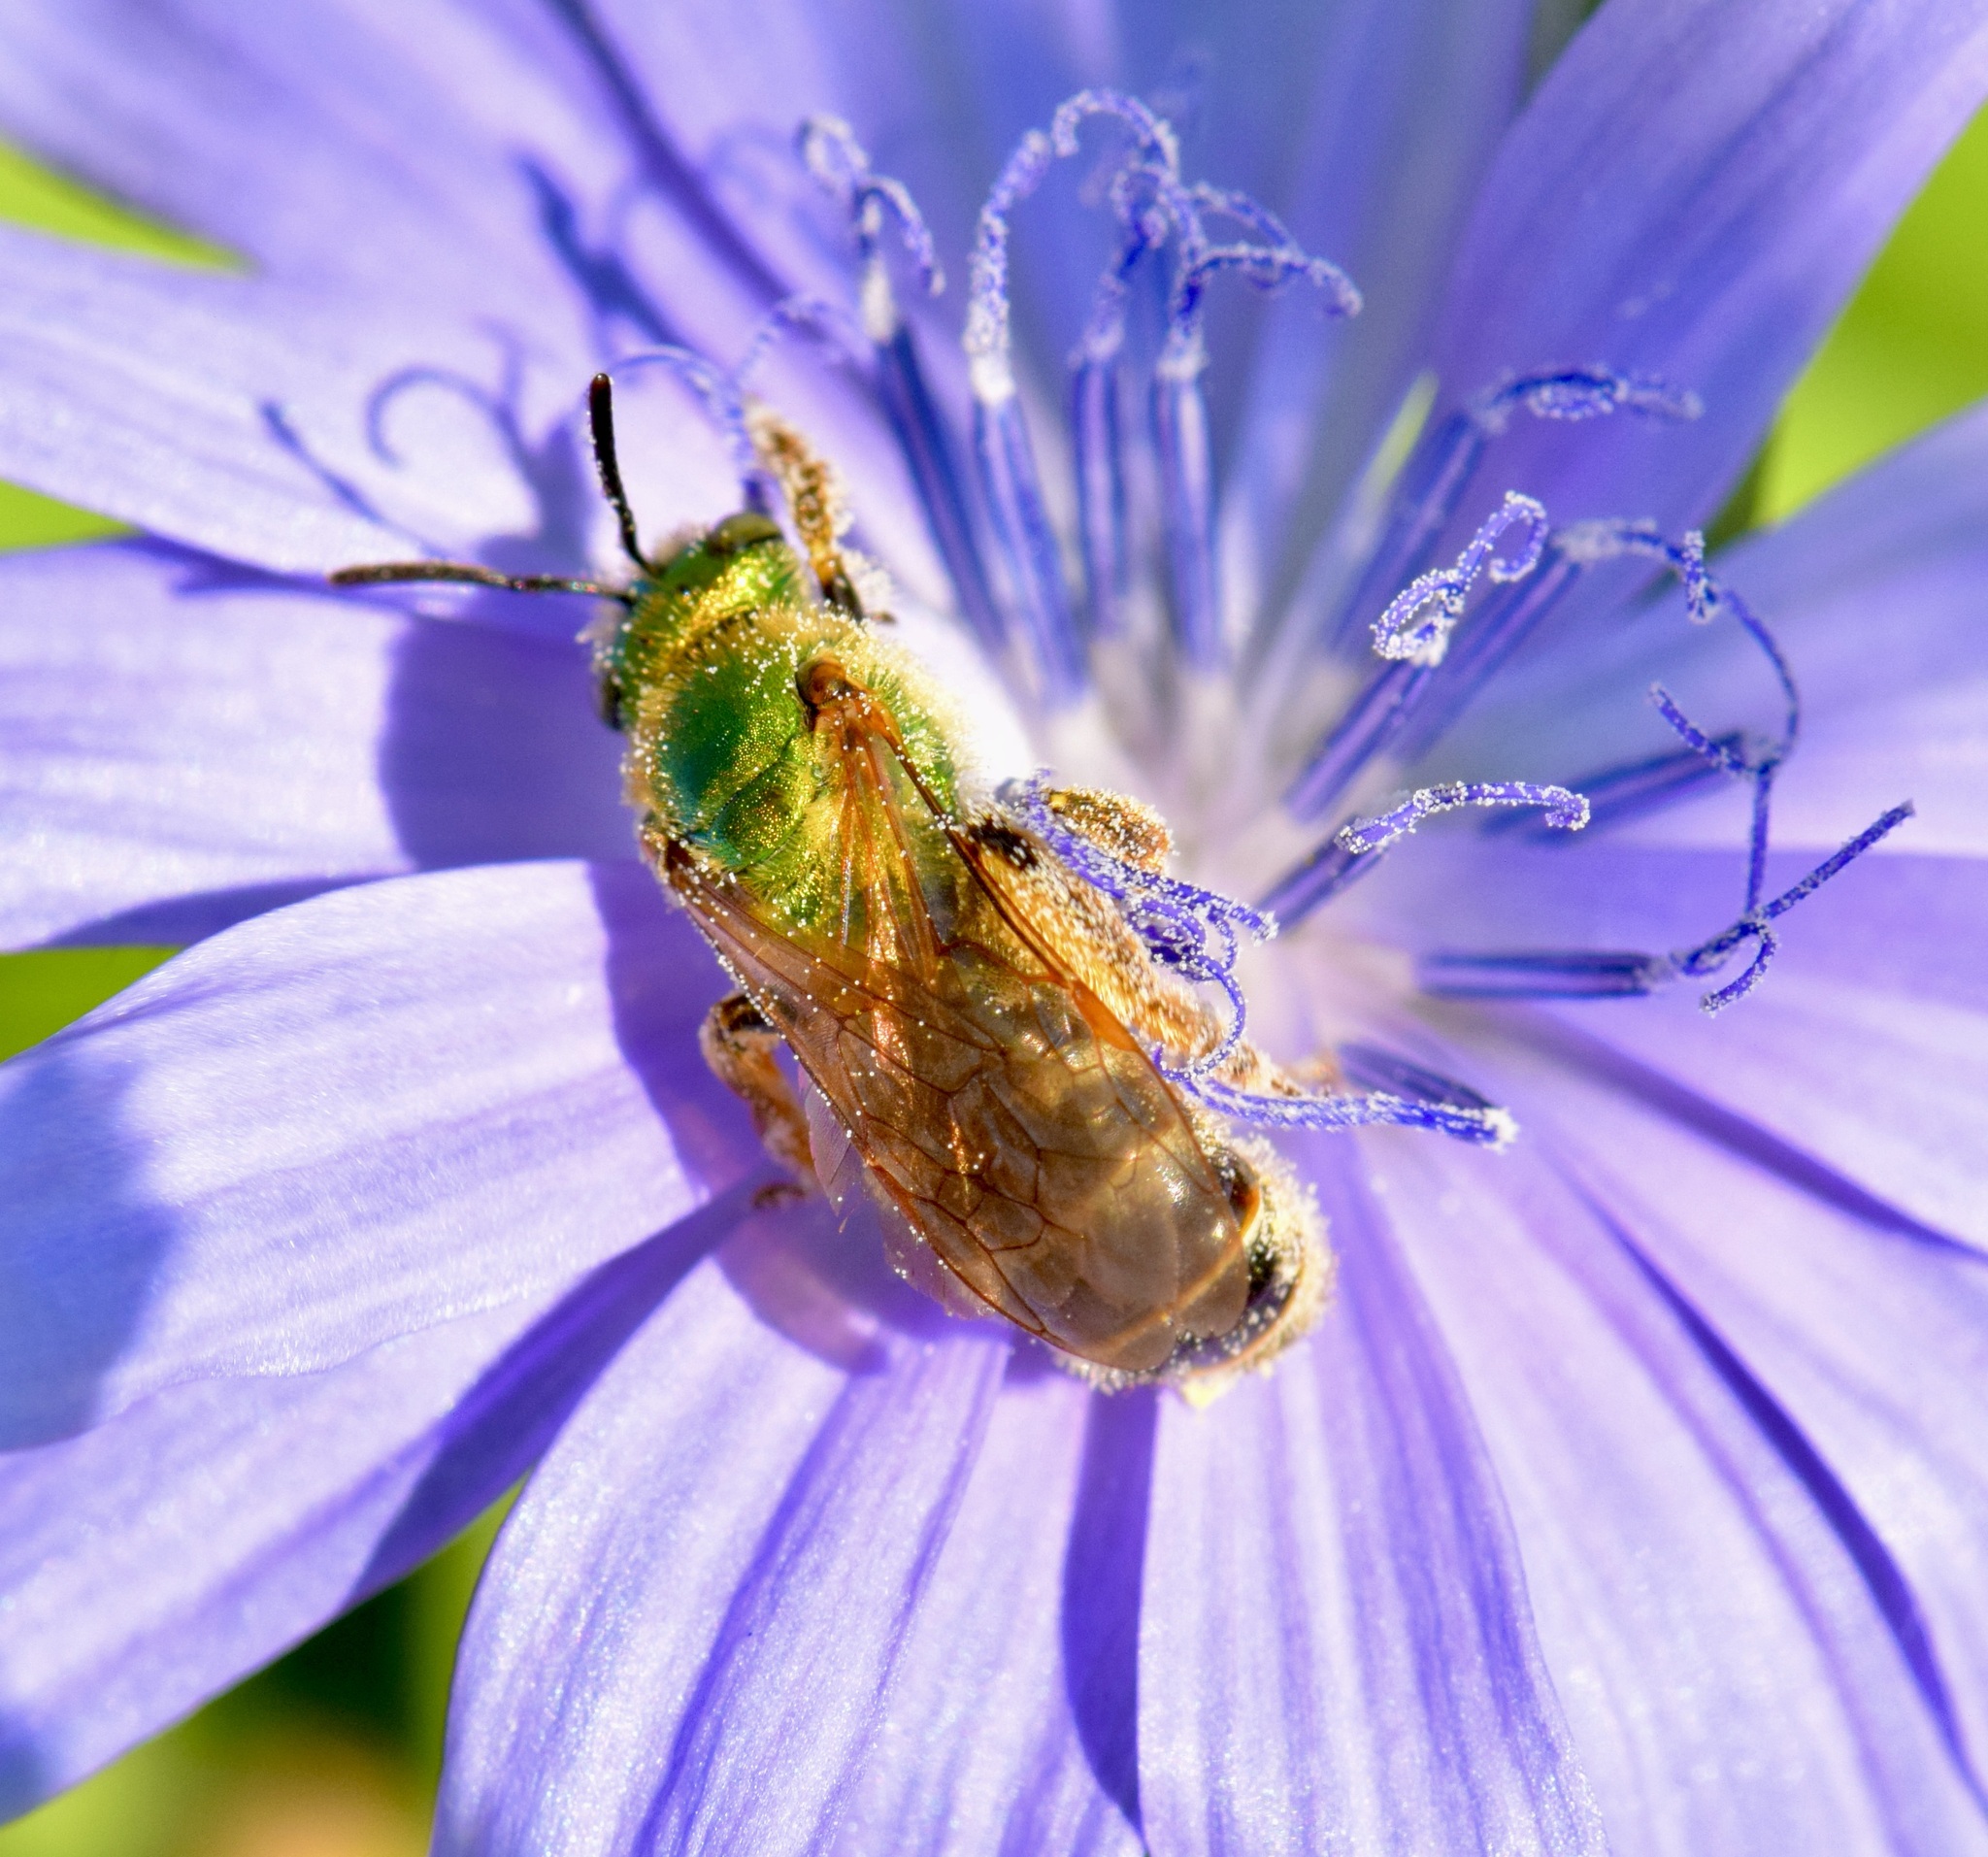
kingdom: Animalia
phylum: Arthropoda
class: Insecta
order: Hymenoptera
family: Halictidae
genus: Agapostemon
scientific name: Agapostemon virescens
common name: Bicolored striped sweat bee
